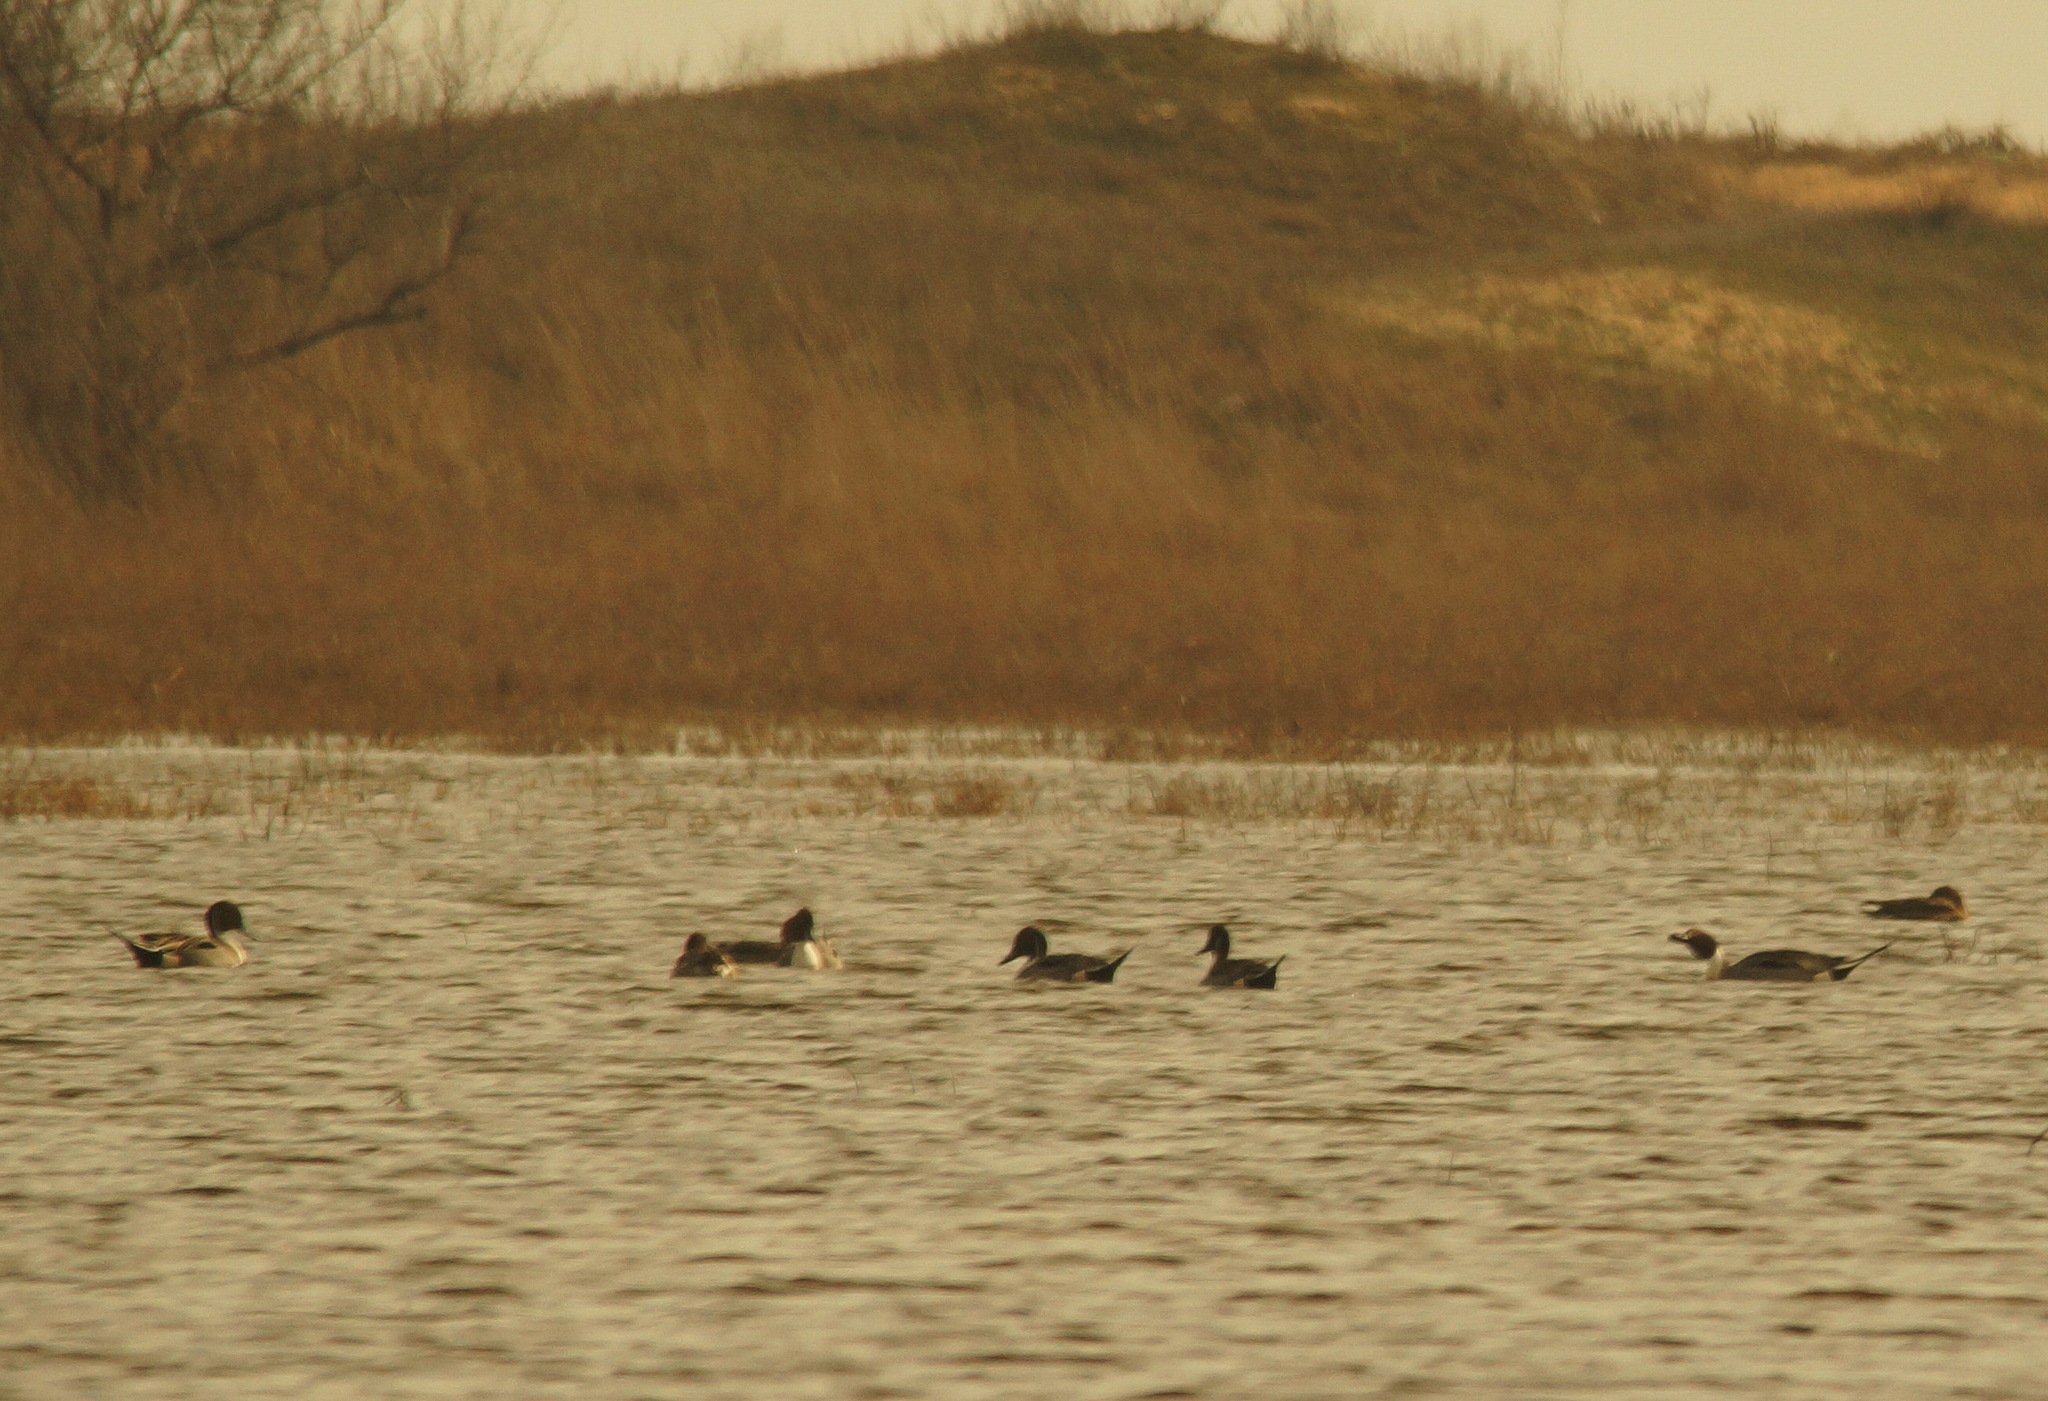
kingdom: Animalia
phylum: Chordata
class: Aves
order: Anseriformes
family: Anatidae
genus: Anas
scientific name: Anas acuta
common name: Northern pintail
